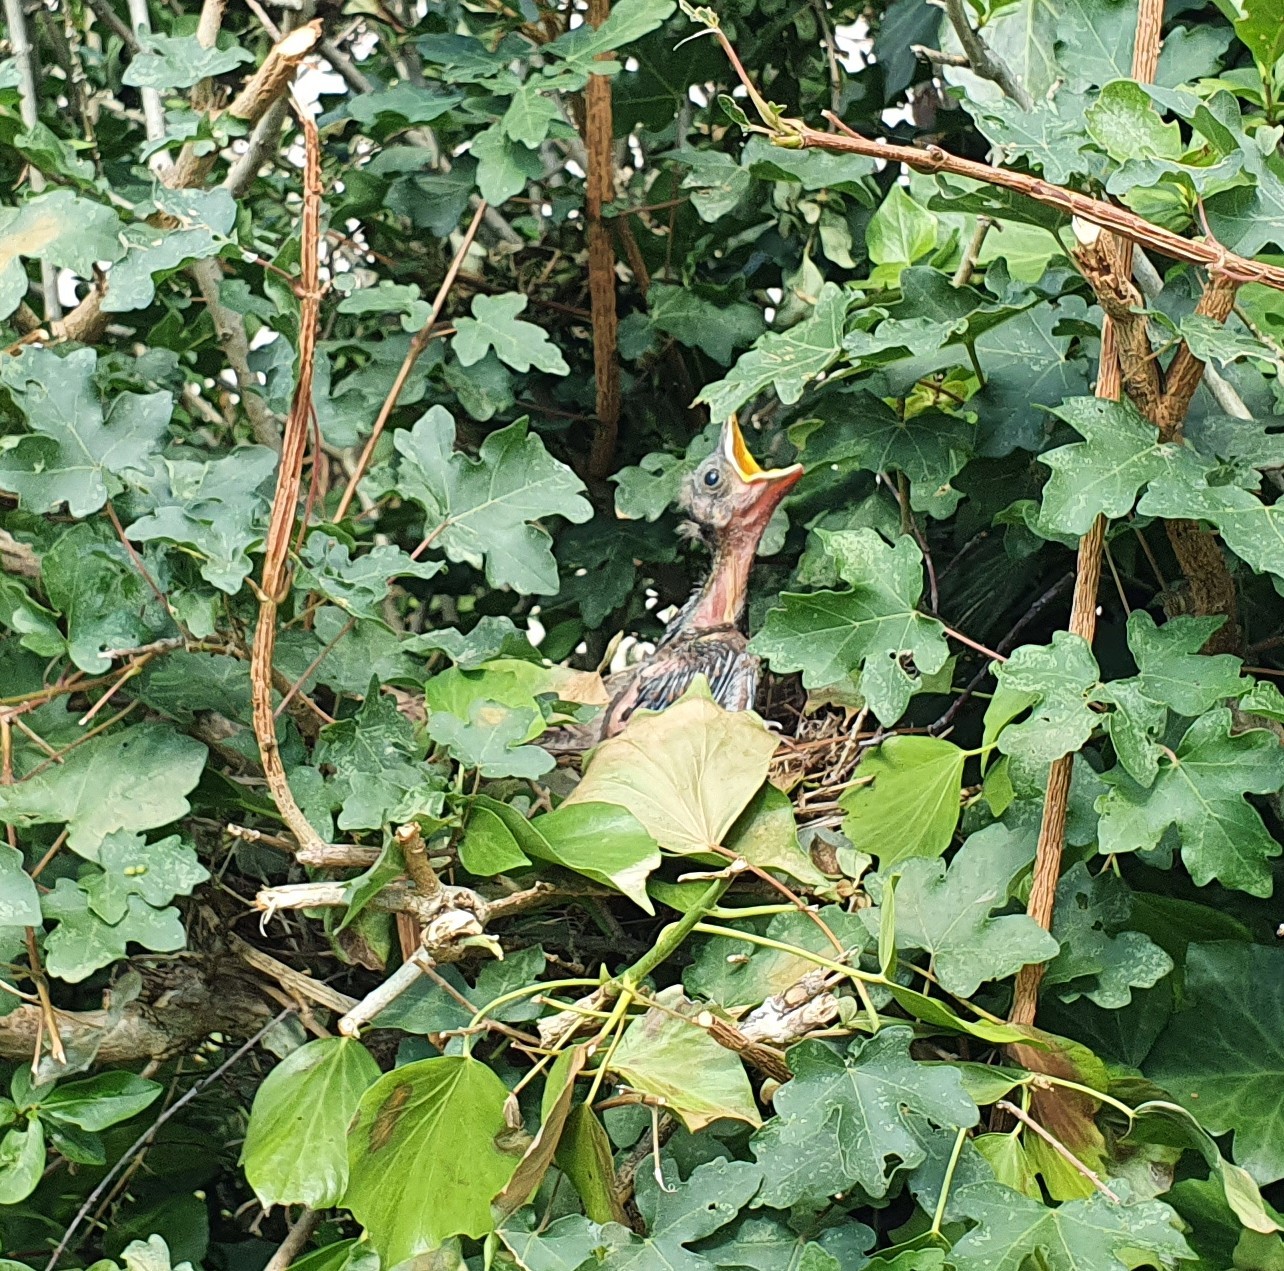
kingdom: Animalia
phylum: Chordata
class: Aves
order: Passeriformes
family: Turdidae
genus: Turdus
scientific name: Turdus merula
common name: Common blackbird
